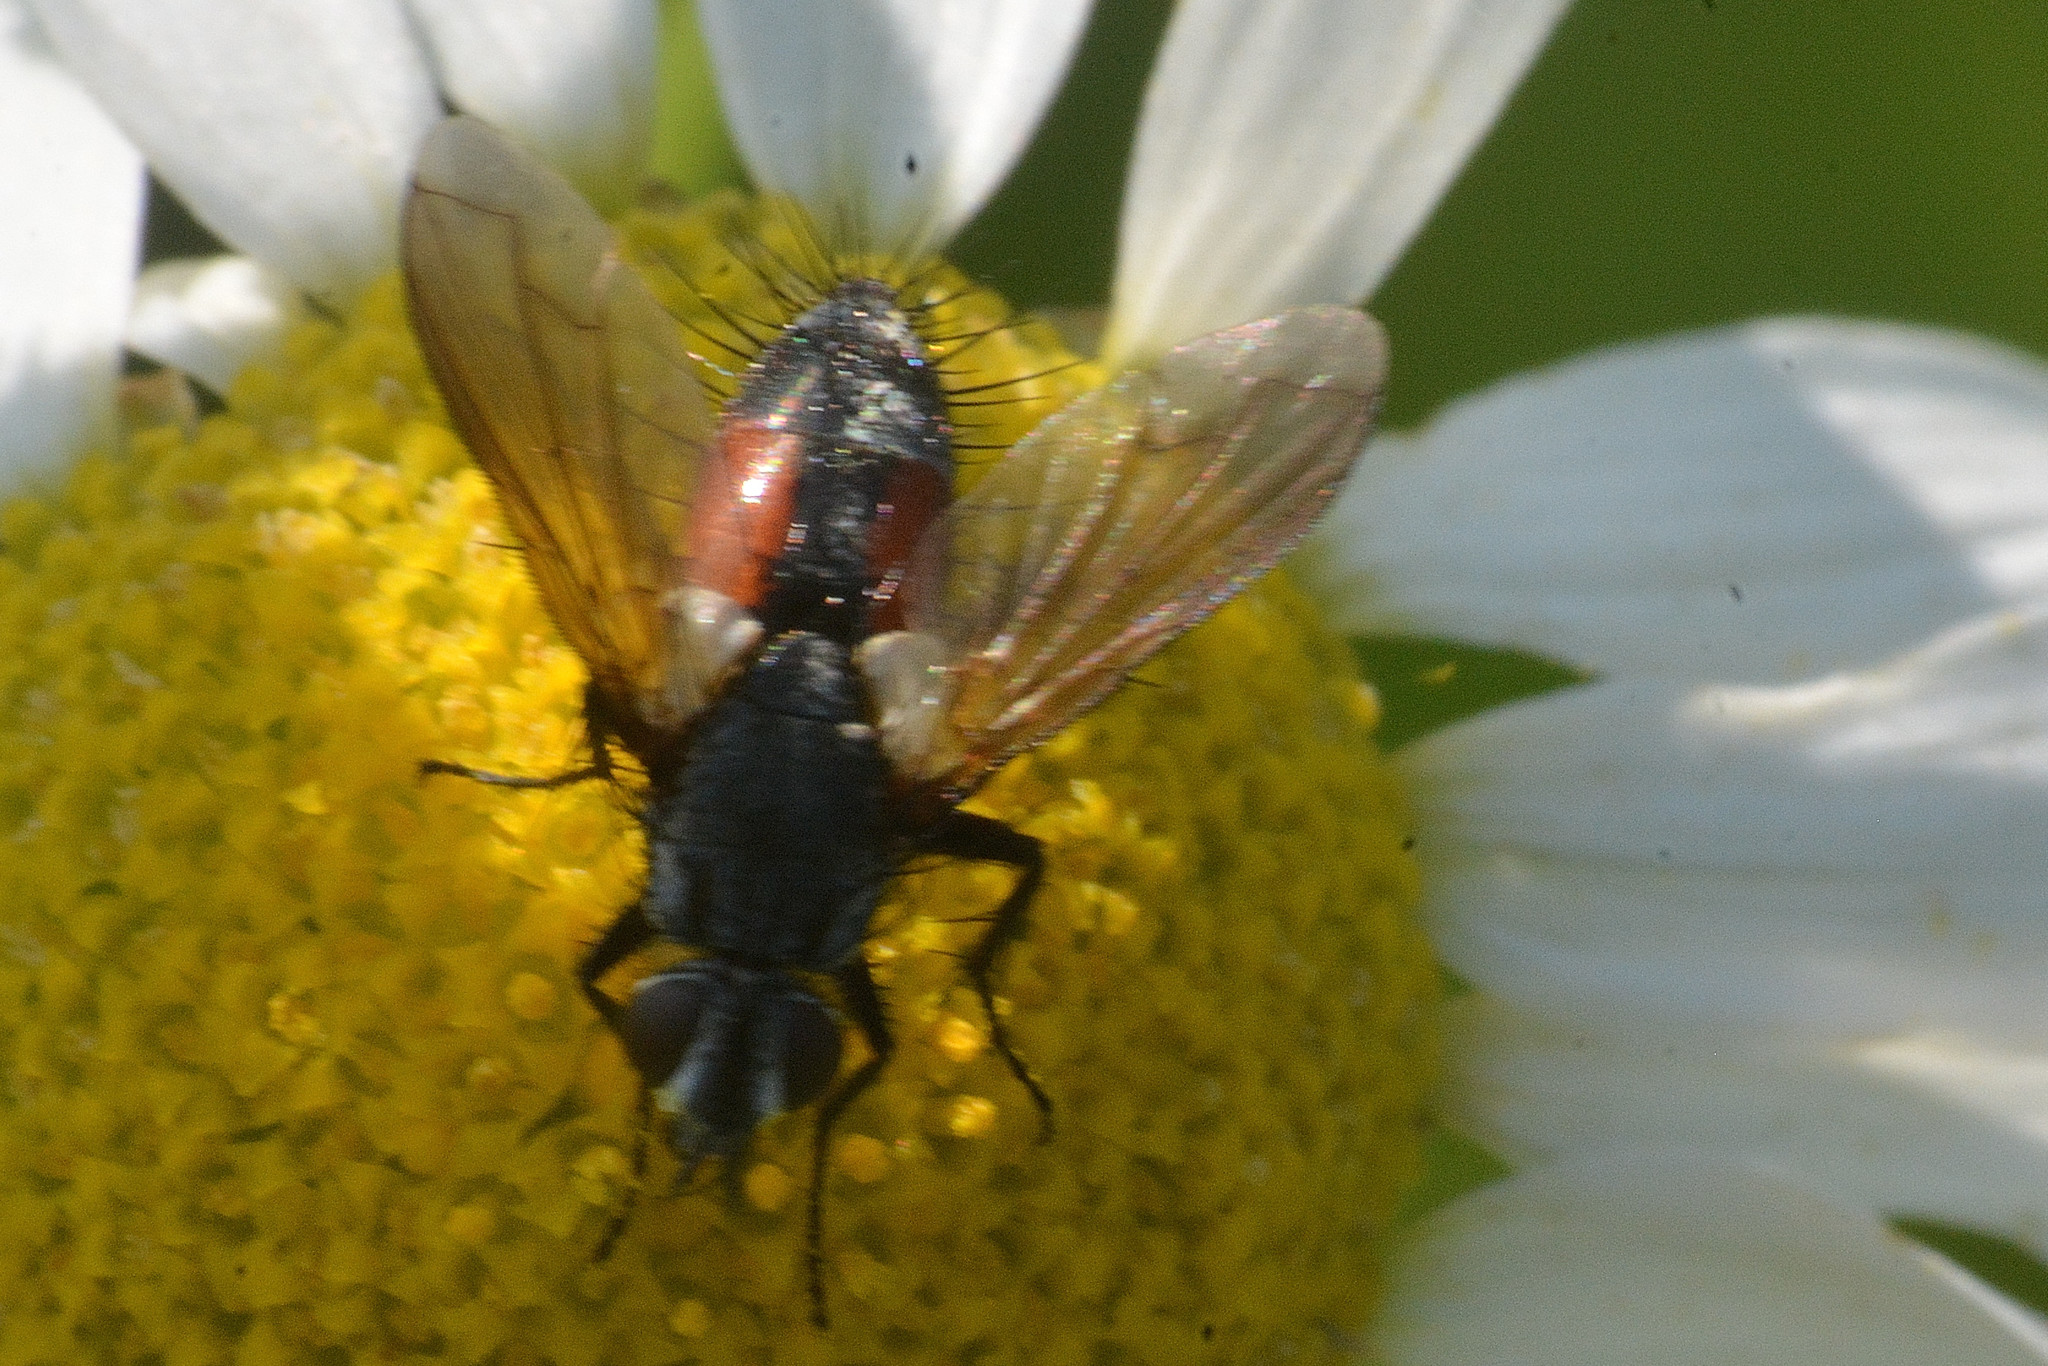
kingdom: Animalia
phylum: Arthropoda
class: Insecta
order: Diptera
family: Tachinidae
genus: Eriothrix
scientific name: Eriothrix rufomaculatus
